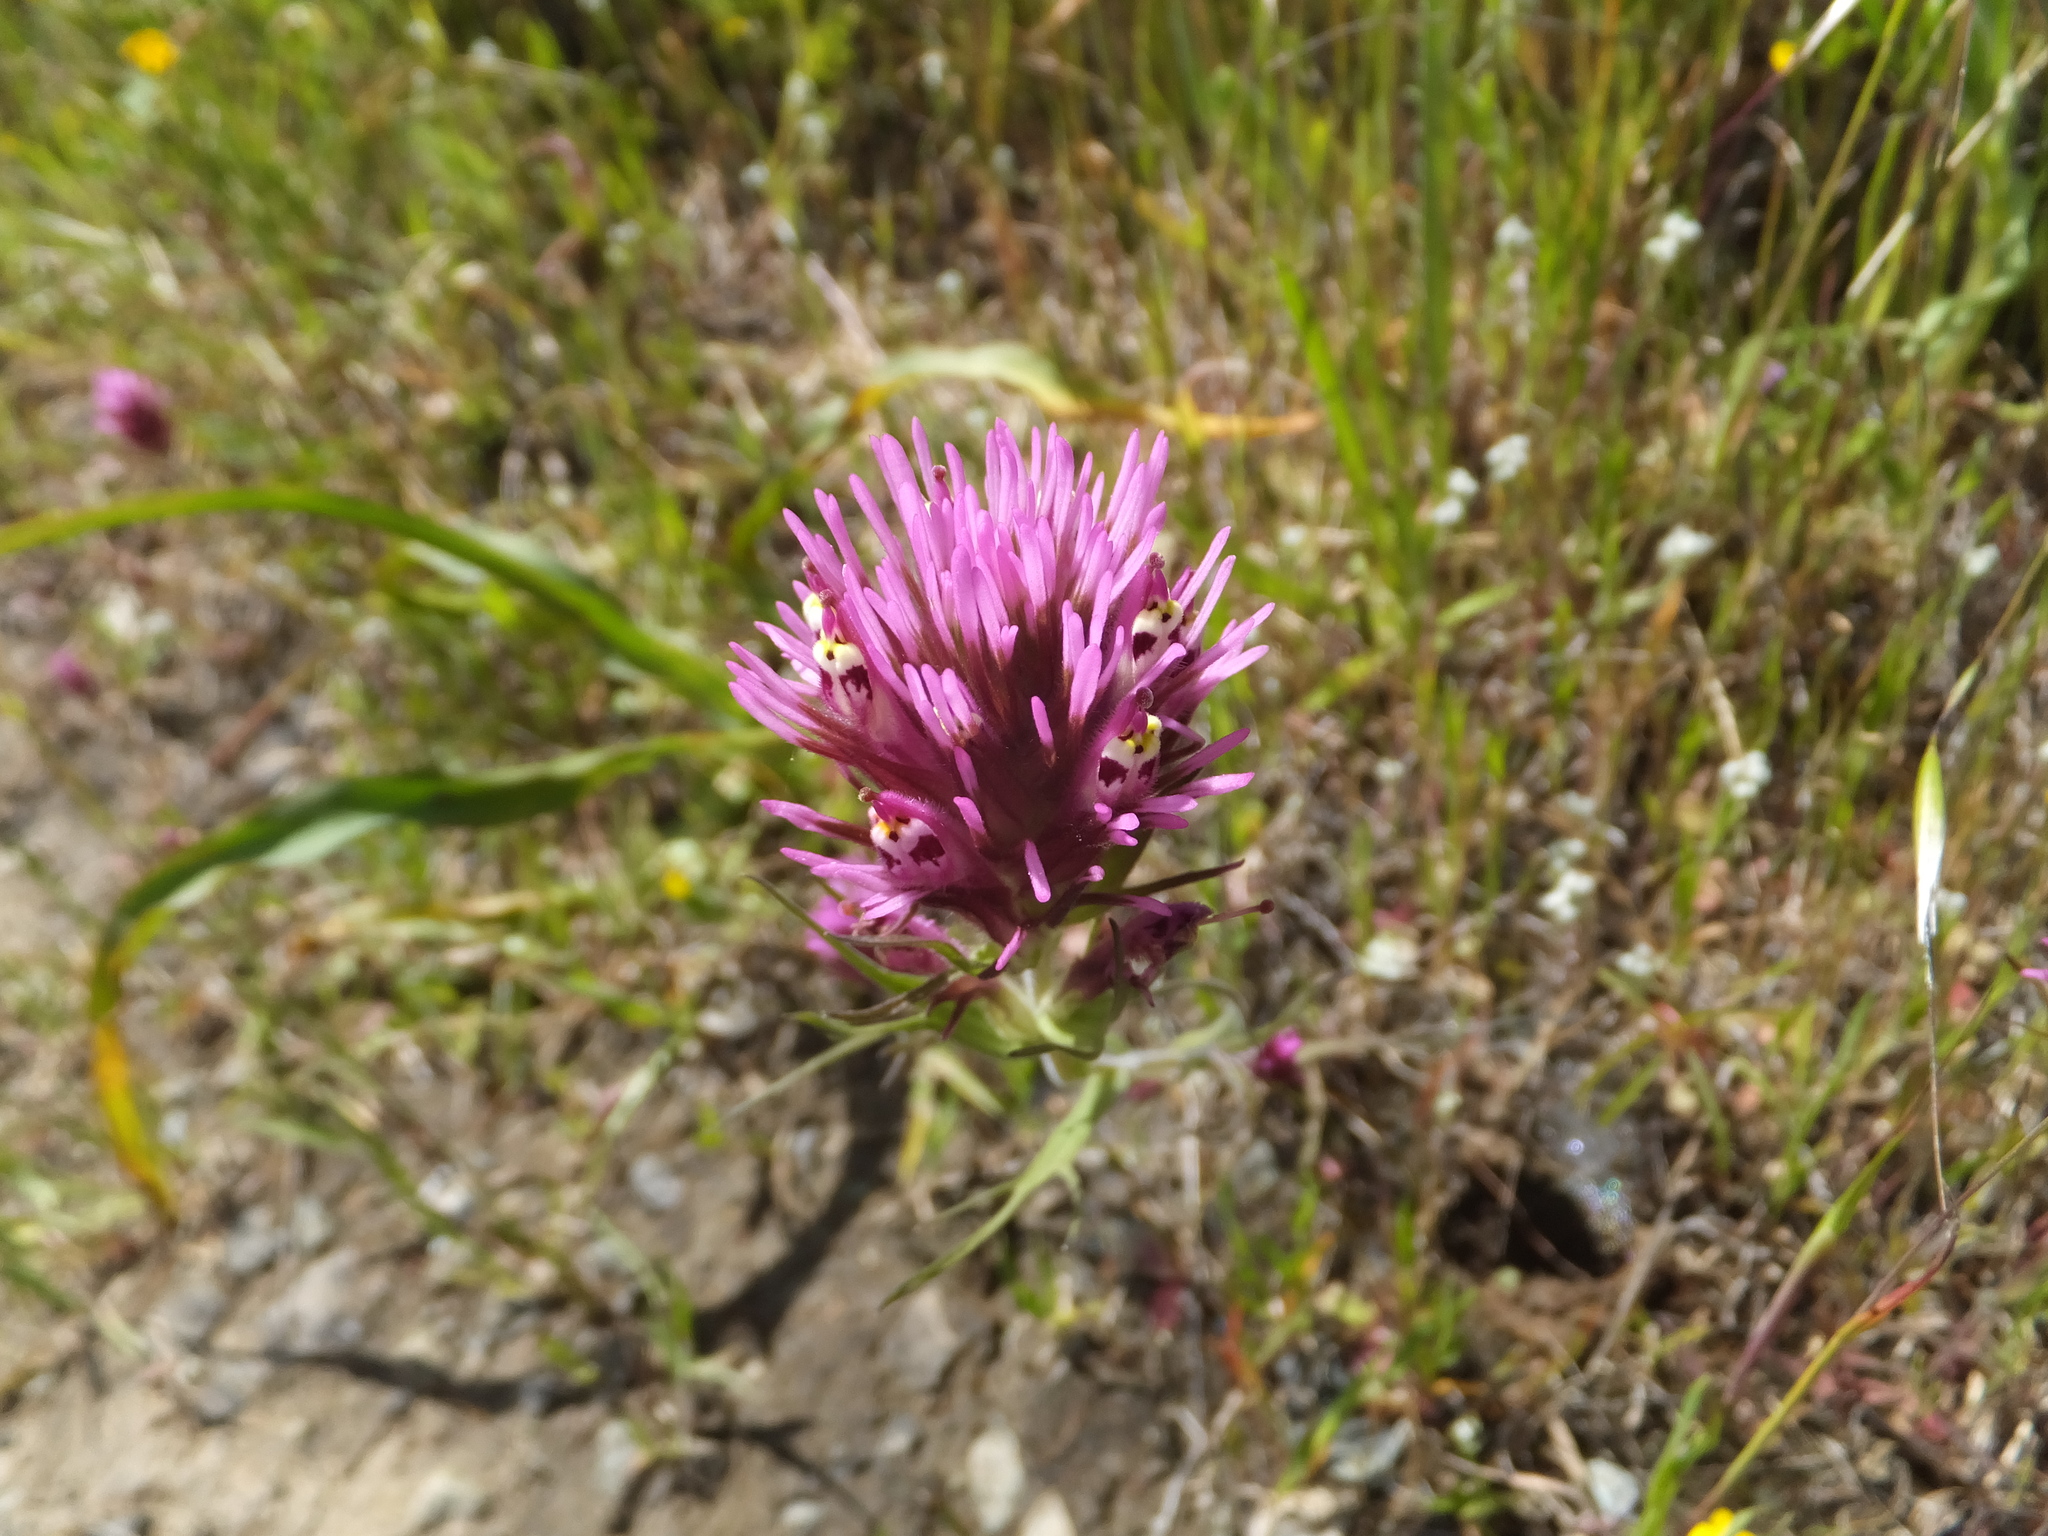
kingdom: Plantae
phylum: Tracheophyta
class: Magnoliopsida
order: Lamiales
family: Orobanchaceae
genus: Castilleja
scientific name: Castilleja densiflora
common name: Dense-flower indian paintbrush
